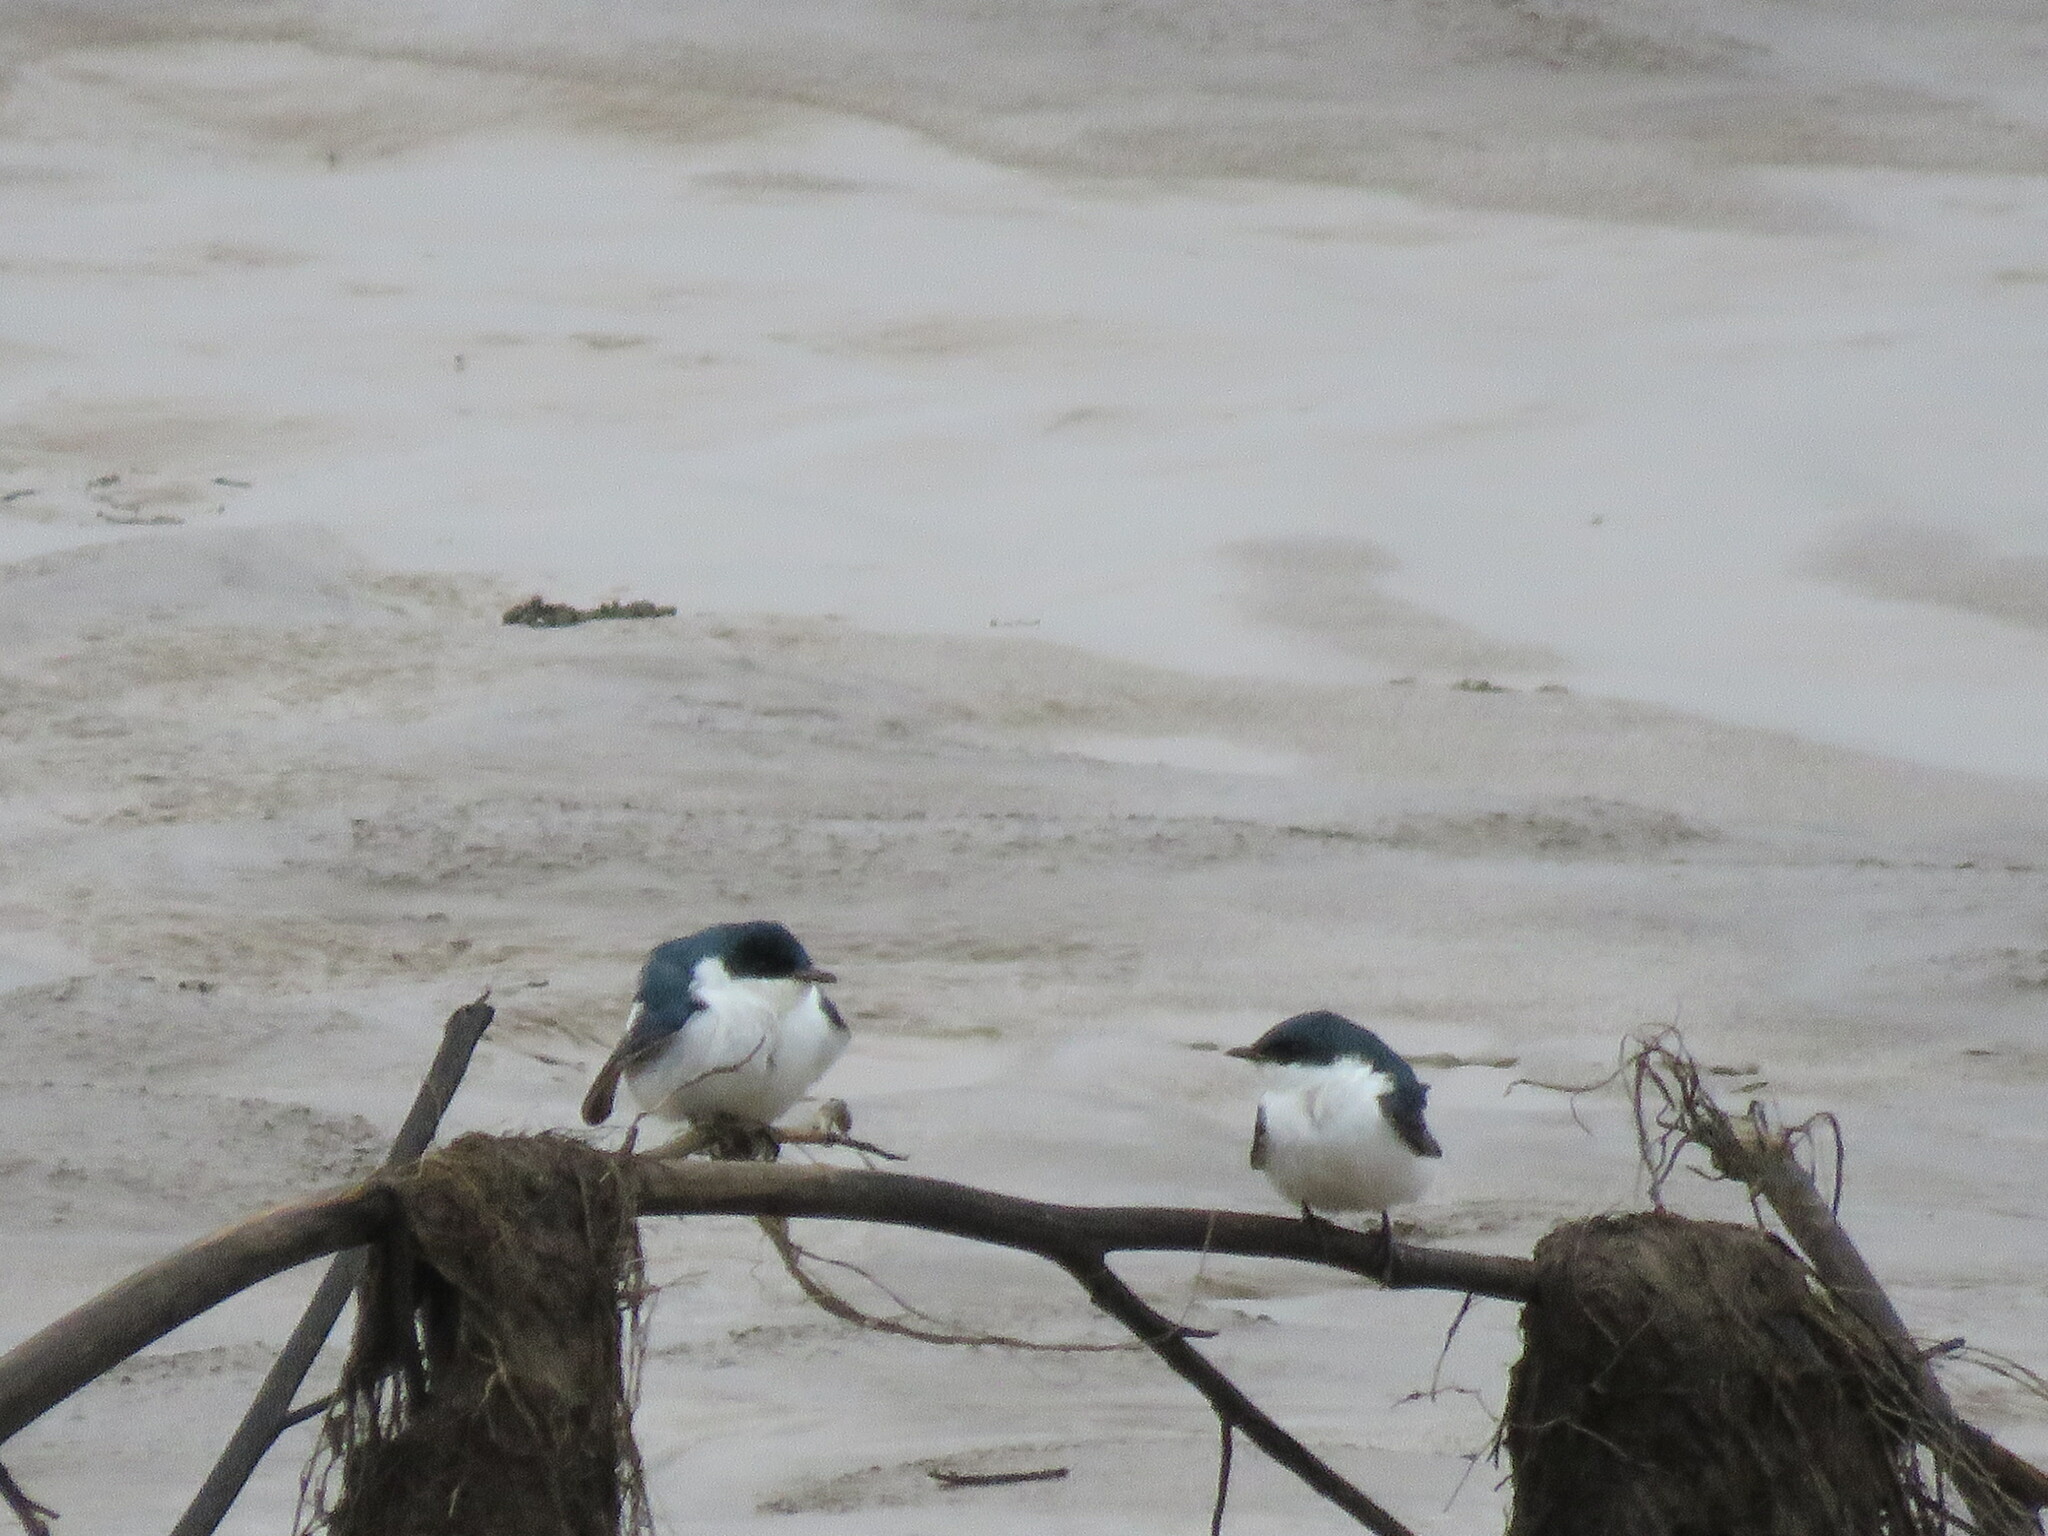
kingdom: Animalia
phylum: Chordata
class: Aves
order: Passeriformes
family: Hirundinidae
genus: Tachycineta
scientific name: Tachycineta albiventer
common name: White-winged swallow
